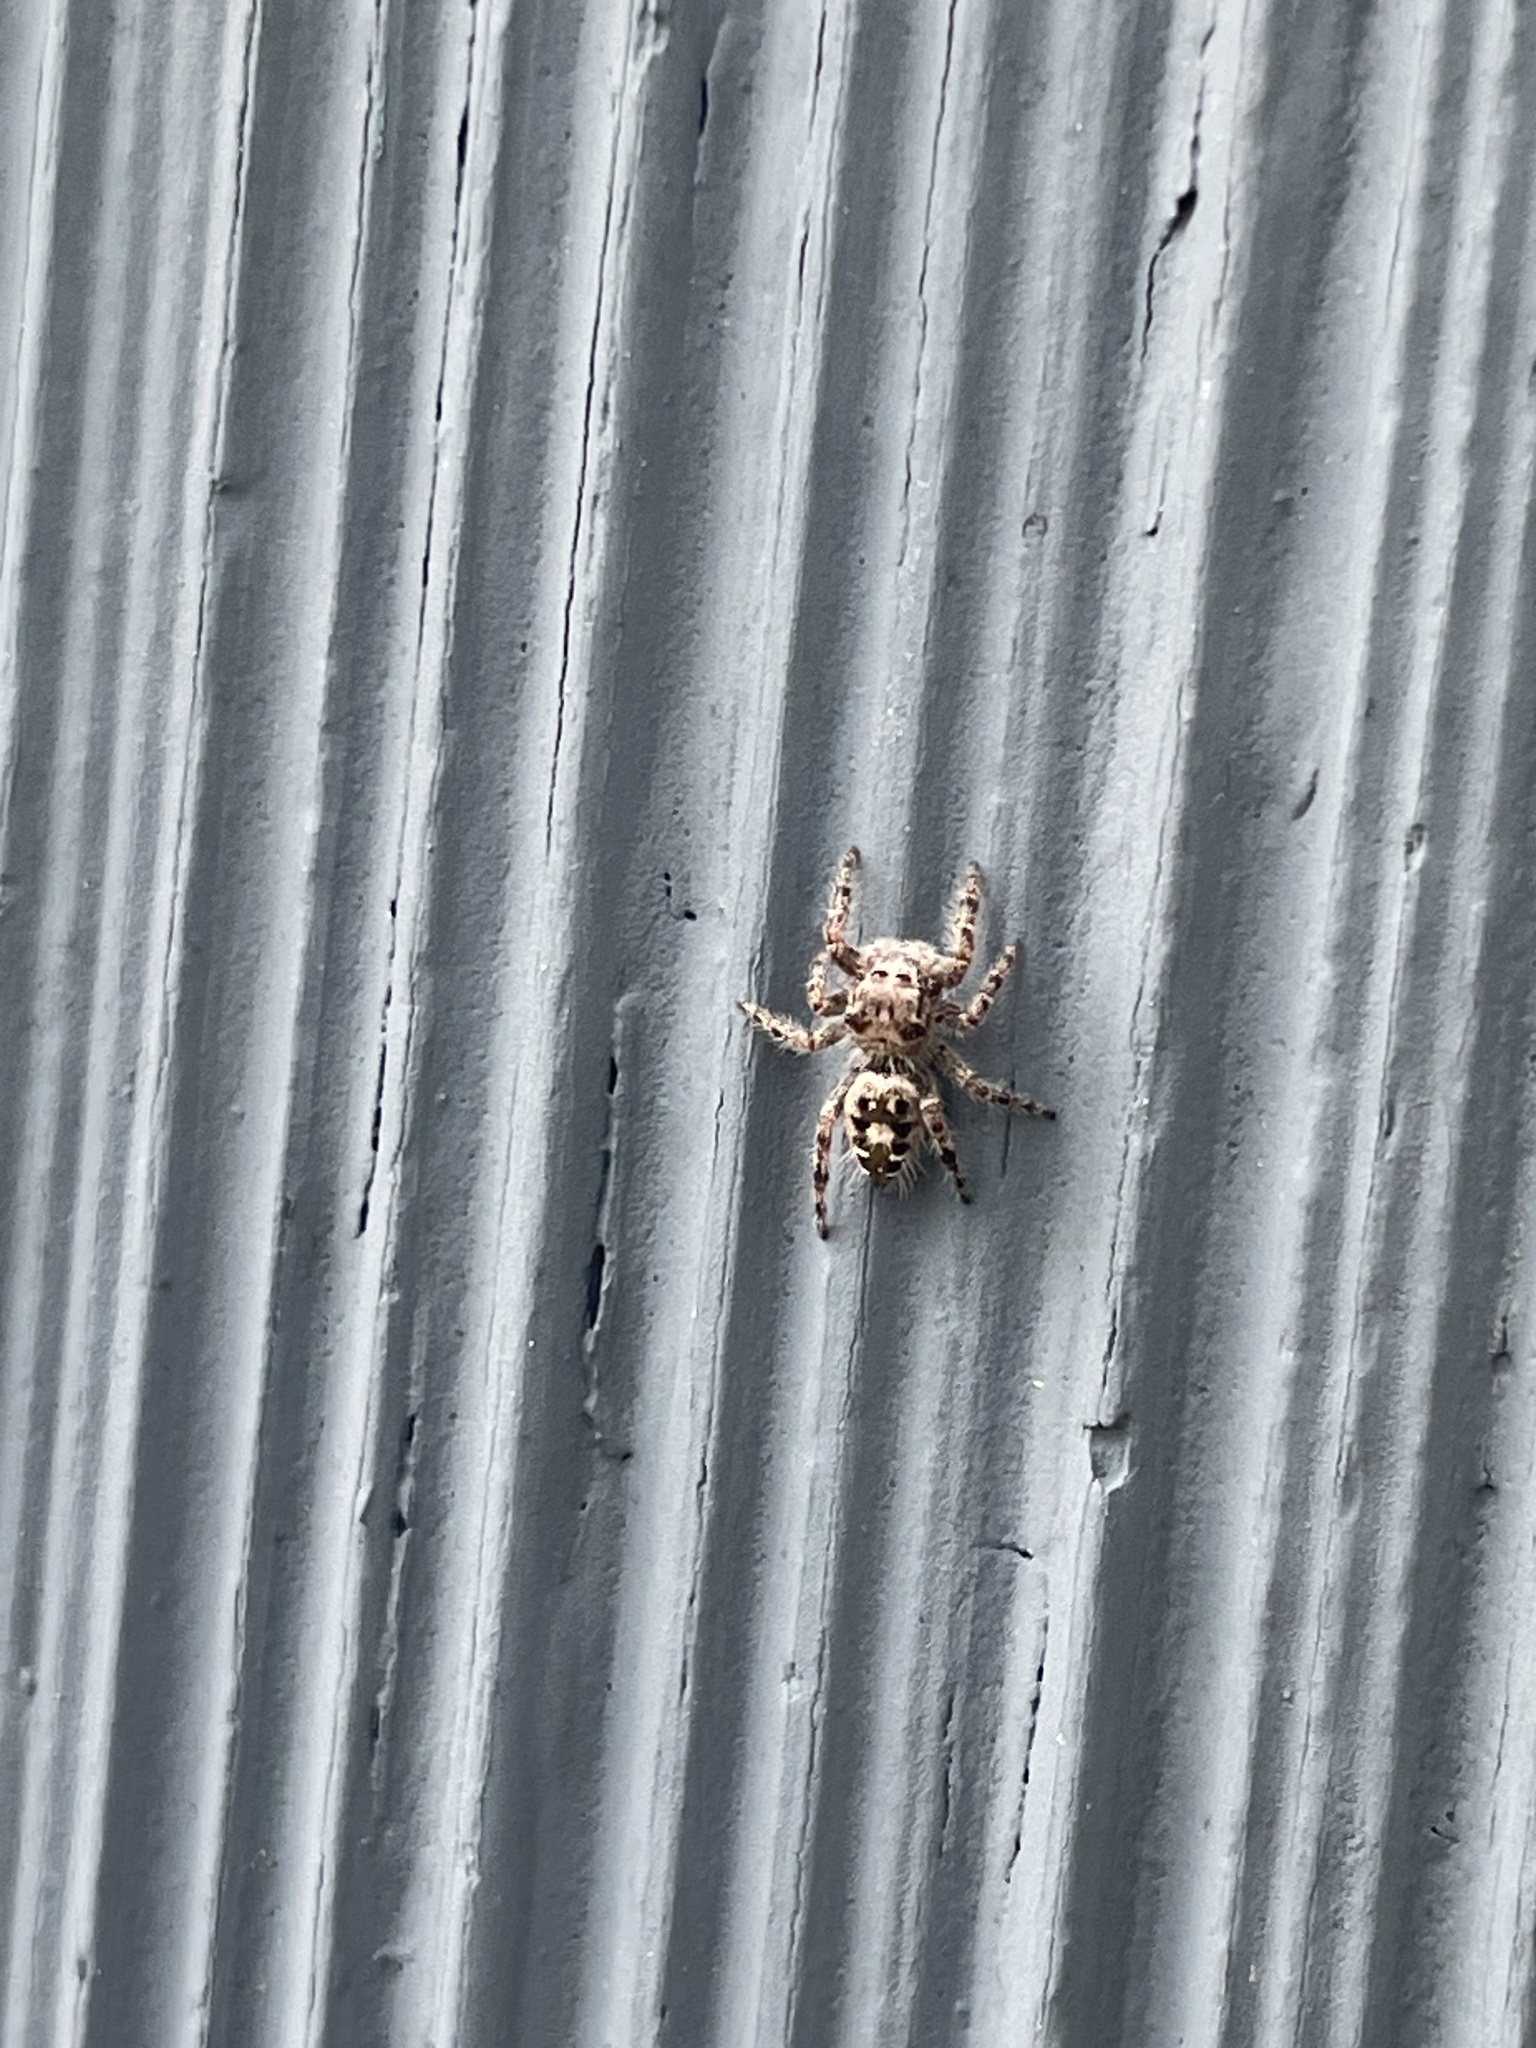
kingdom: Animalia
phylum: Arthropoda
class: Arachnida
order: Araneae
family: Salticidae
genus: Phidippus
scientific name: Phidippus putnami
